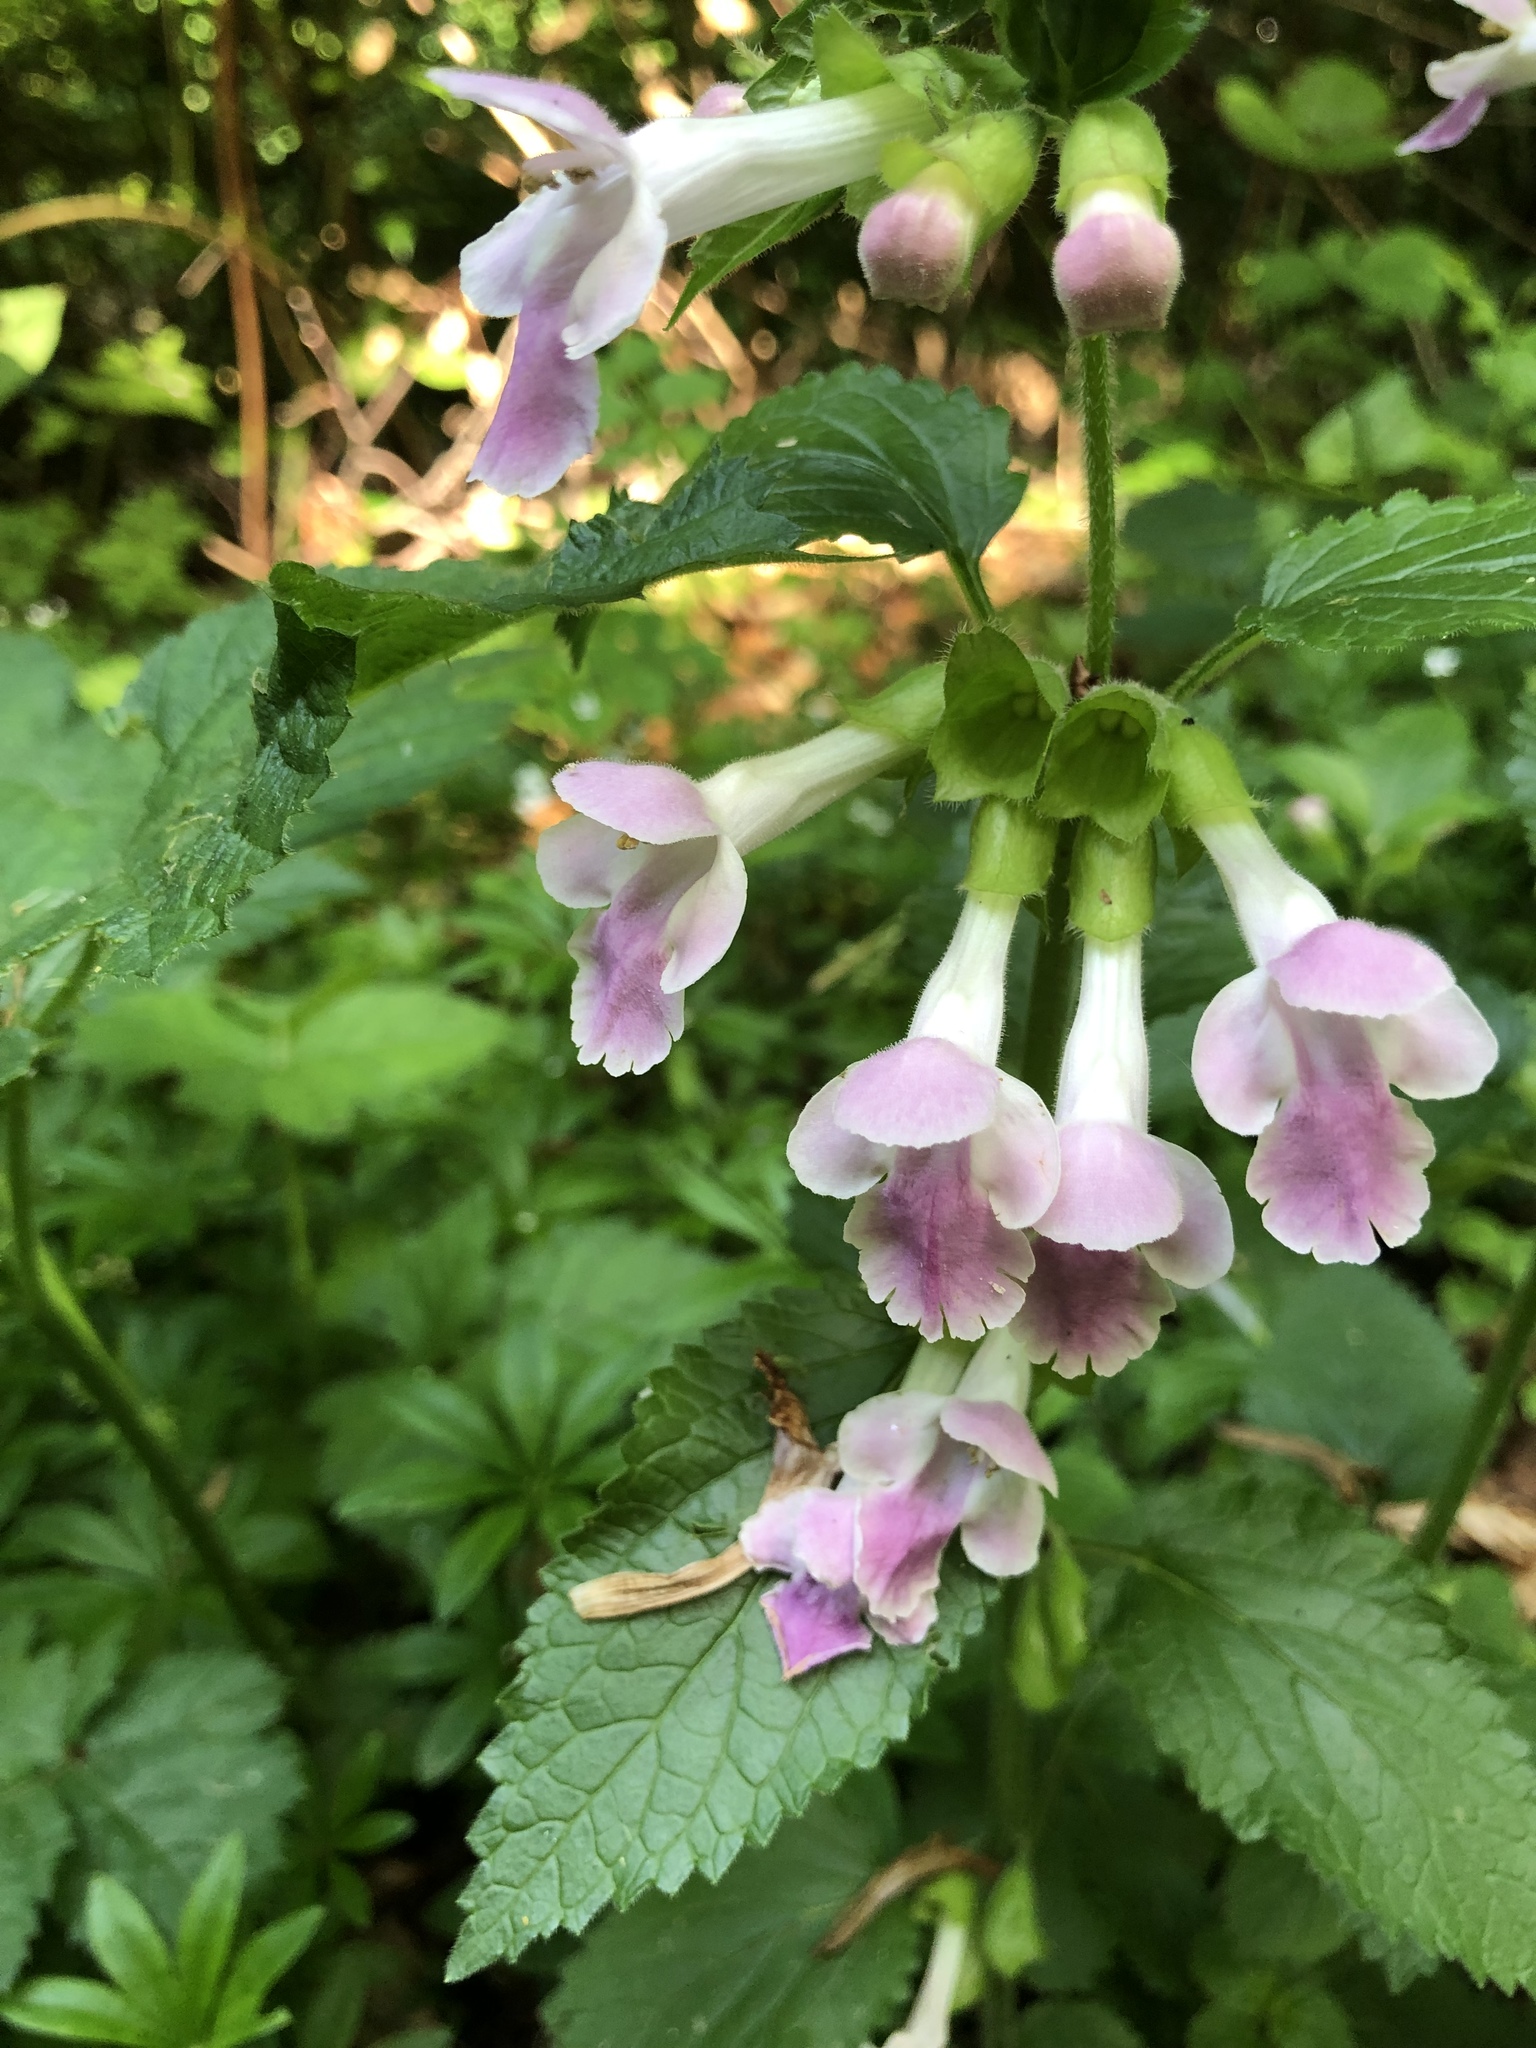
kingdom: Plantae
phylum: Tracheophyta
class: Magnoliopsida
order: Lamiales
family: Lamiaceae
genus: Melittis
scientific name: Melittis melissophyllum
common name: Bastard balm
